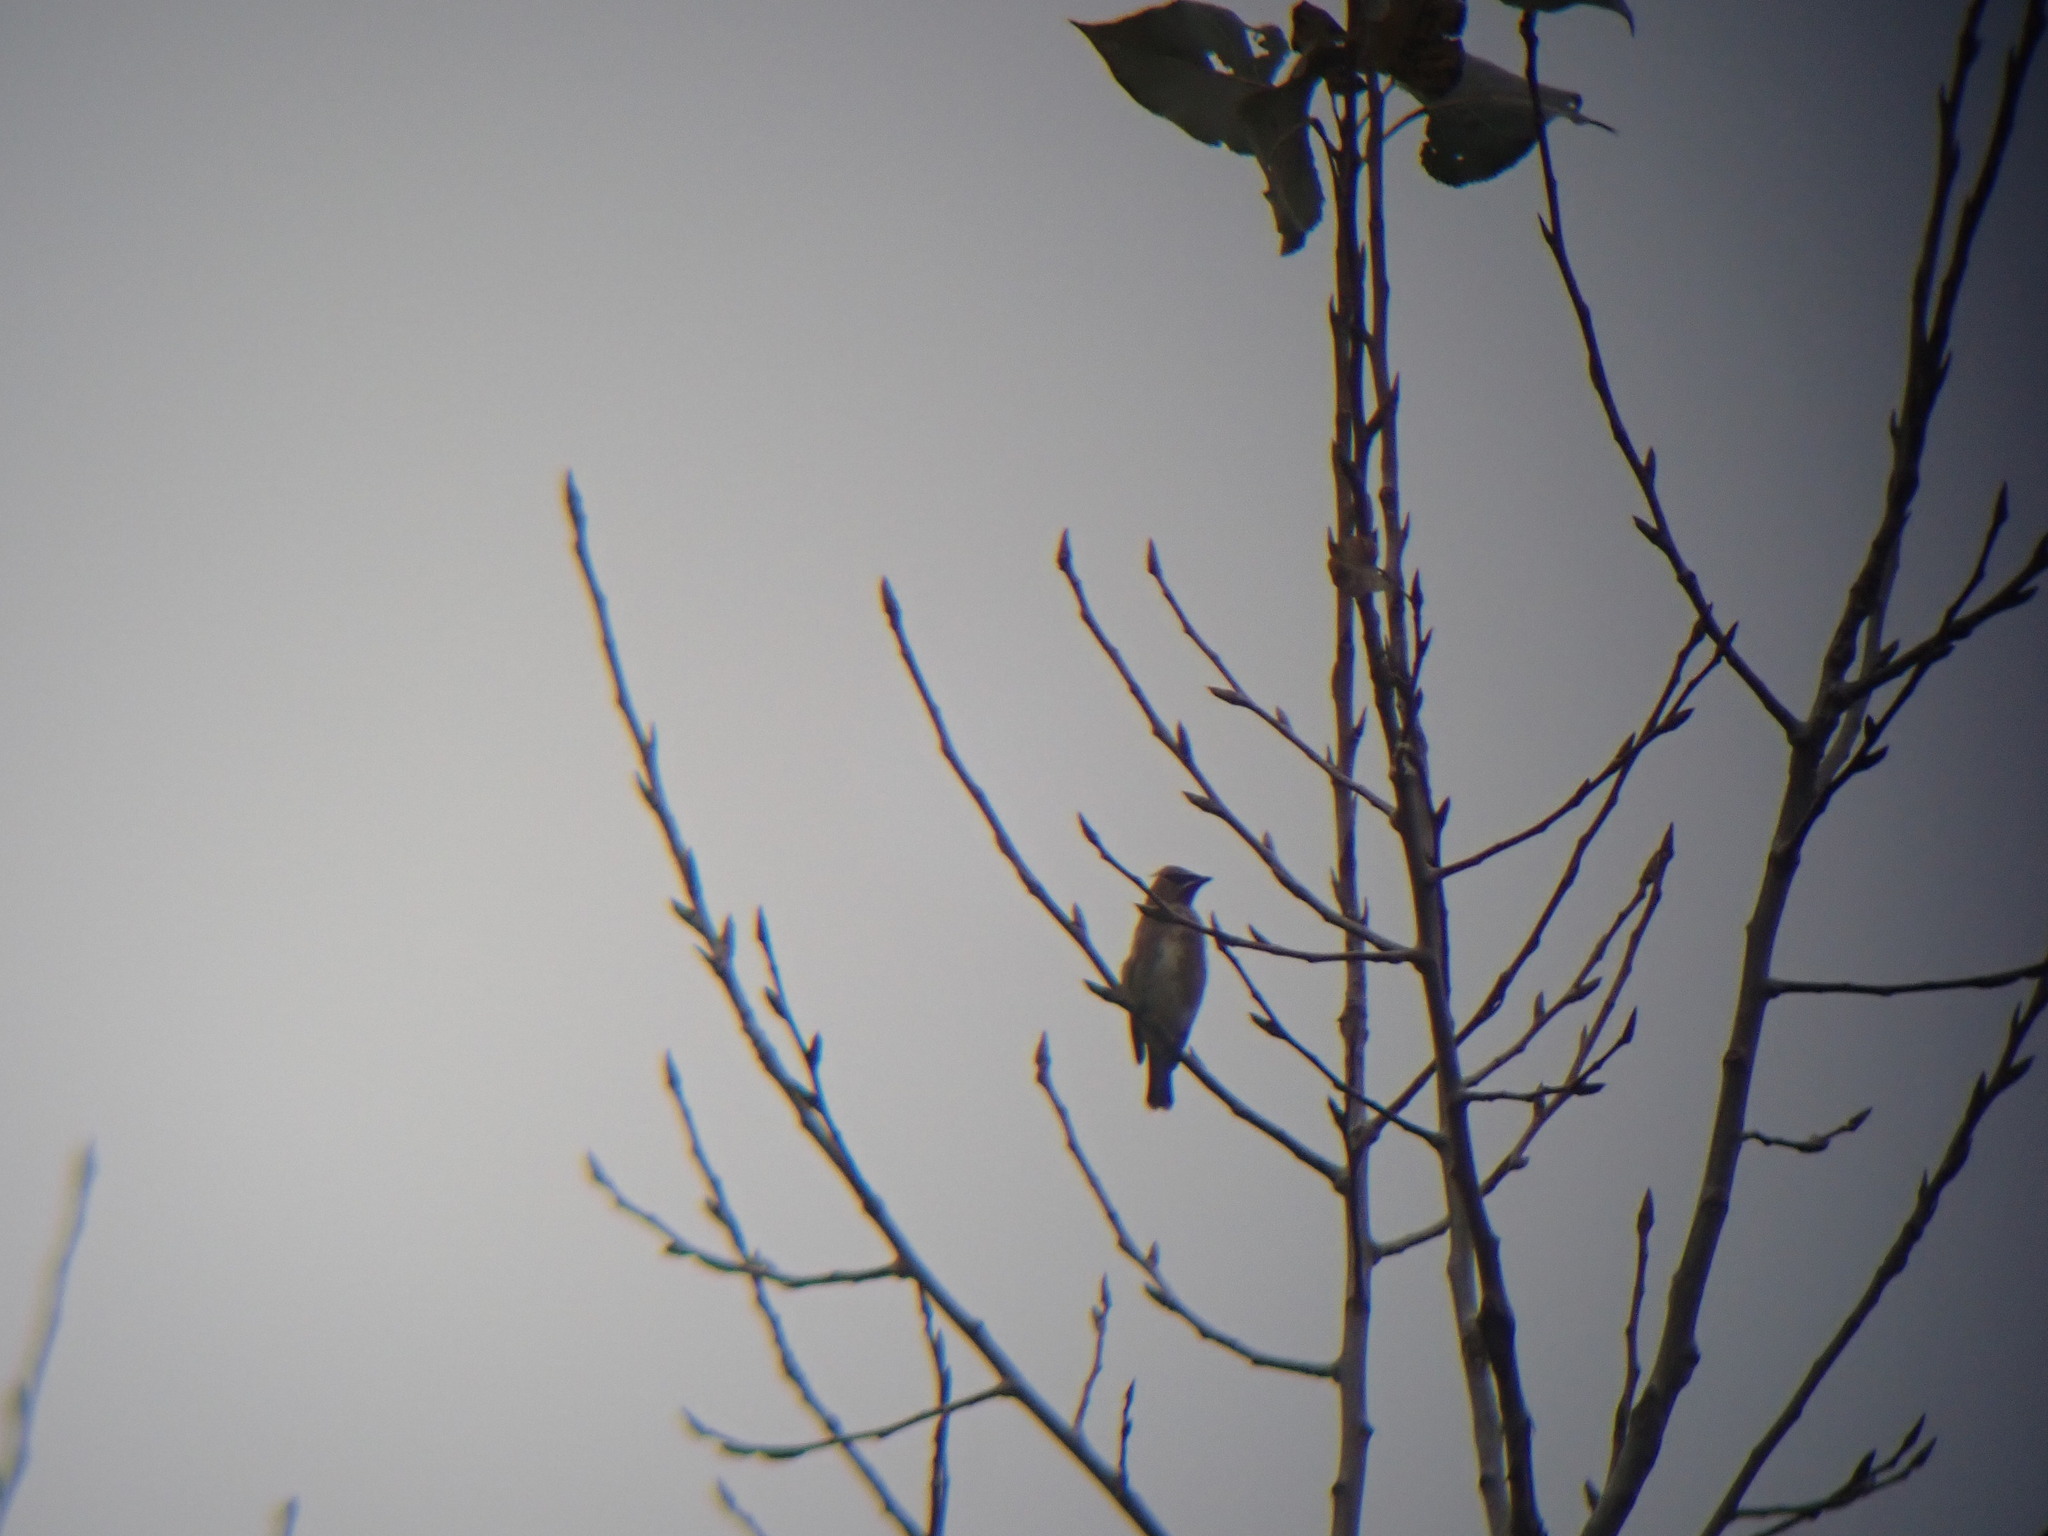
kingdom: Animalia
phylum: Chordata
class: Aves
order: Passeriformes
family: Bombycillidae
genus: Bombycilla
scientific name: Bombycilla cedrorum
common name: Cedar waxwing
